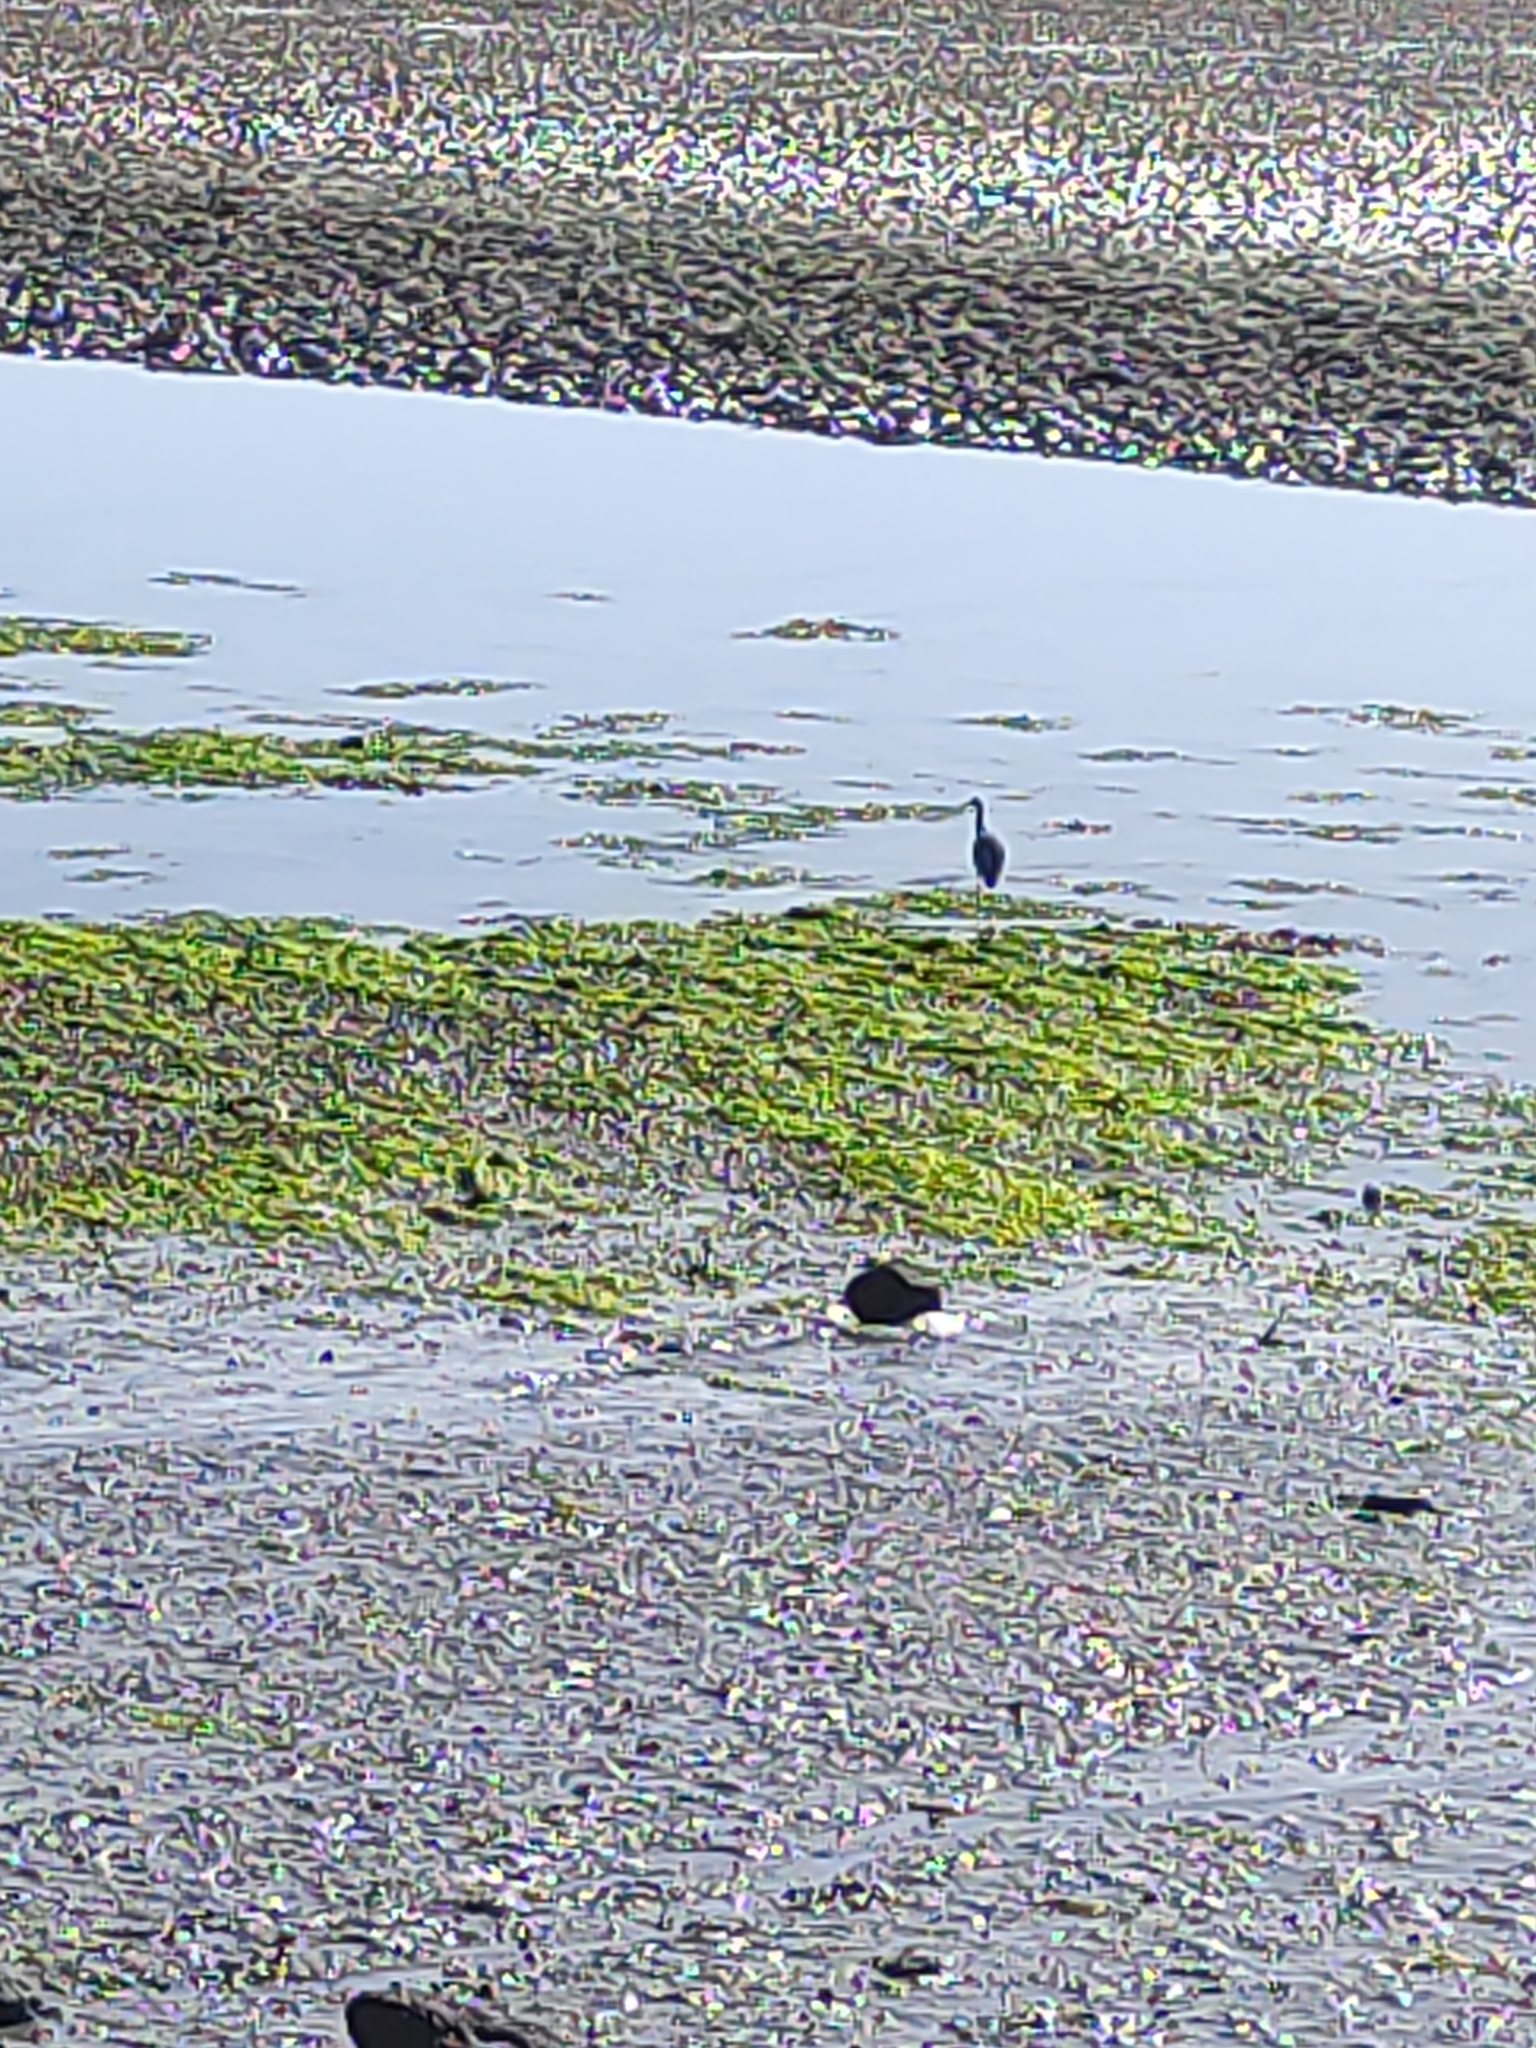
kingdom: Animalia
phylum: Chordata
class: Aves
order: Pelecaniformes
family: Ardeidae
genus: Egretta
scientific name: Egretta novaehollandiae
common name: White-faced heron
